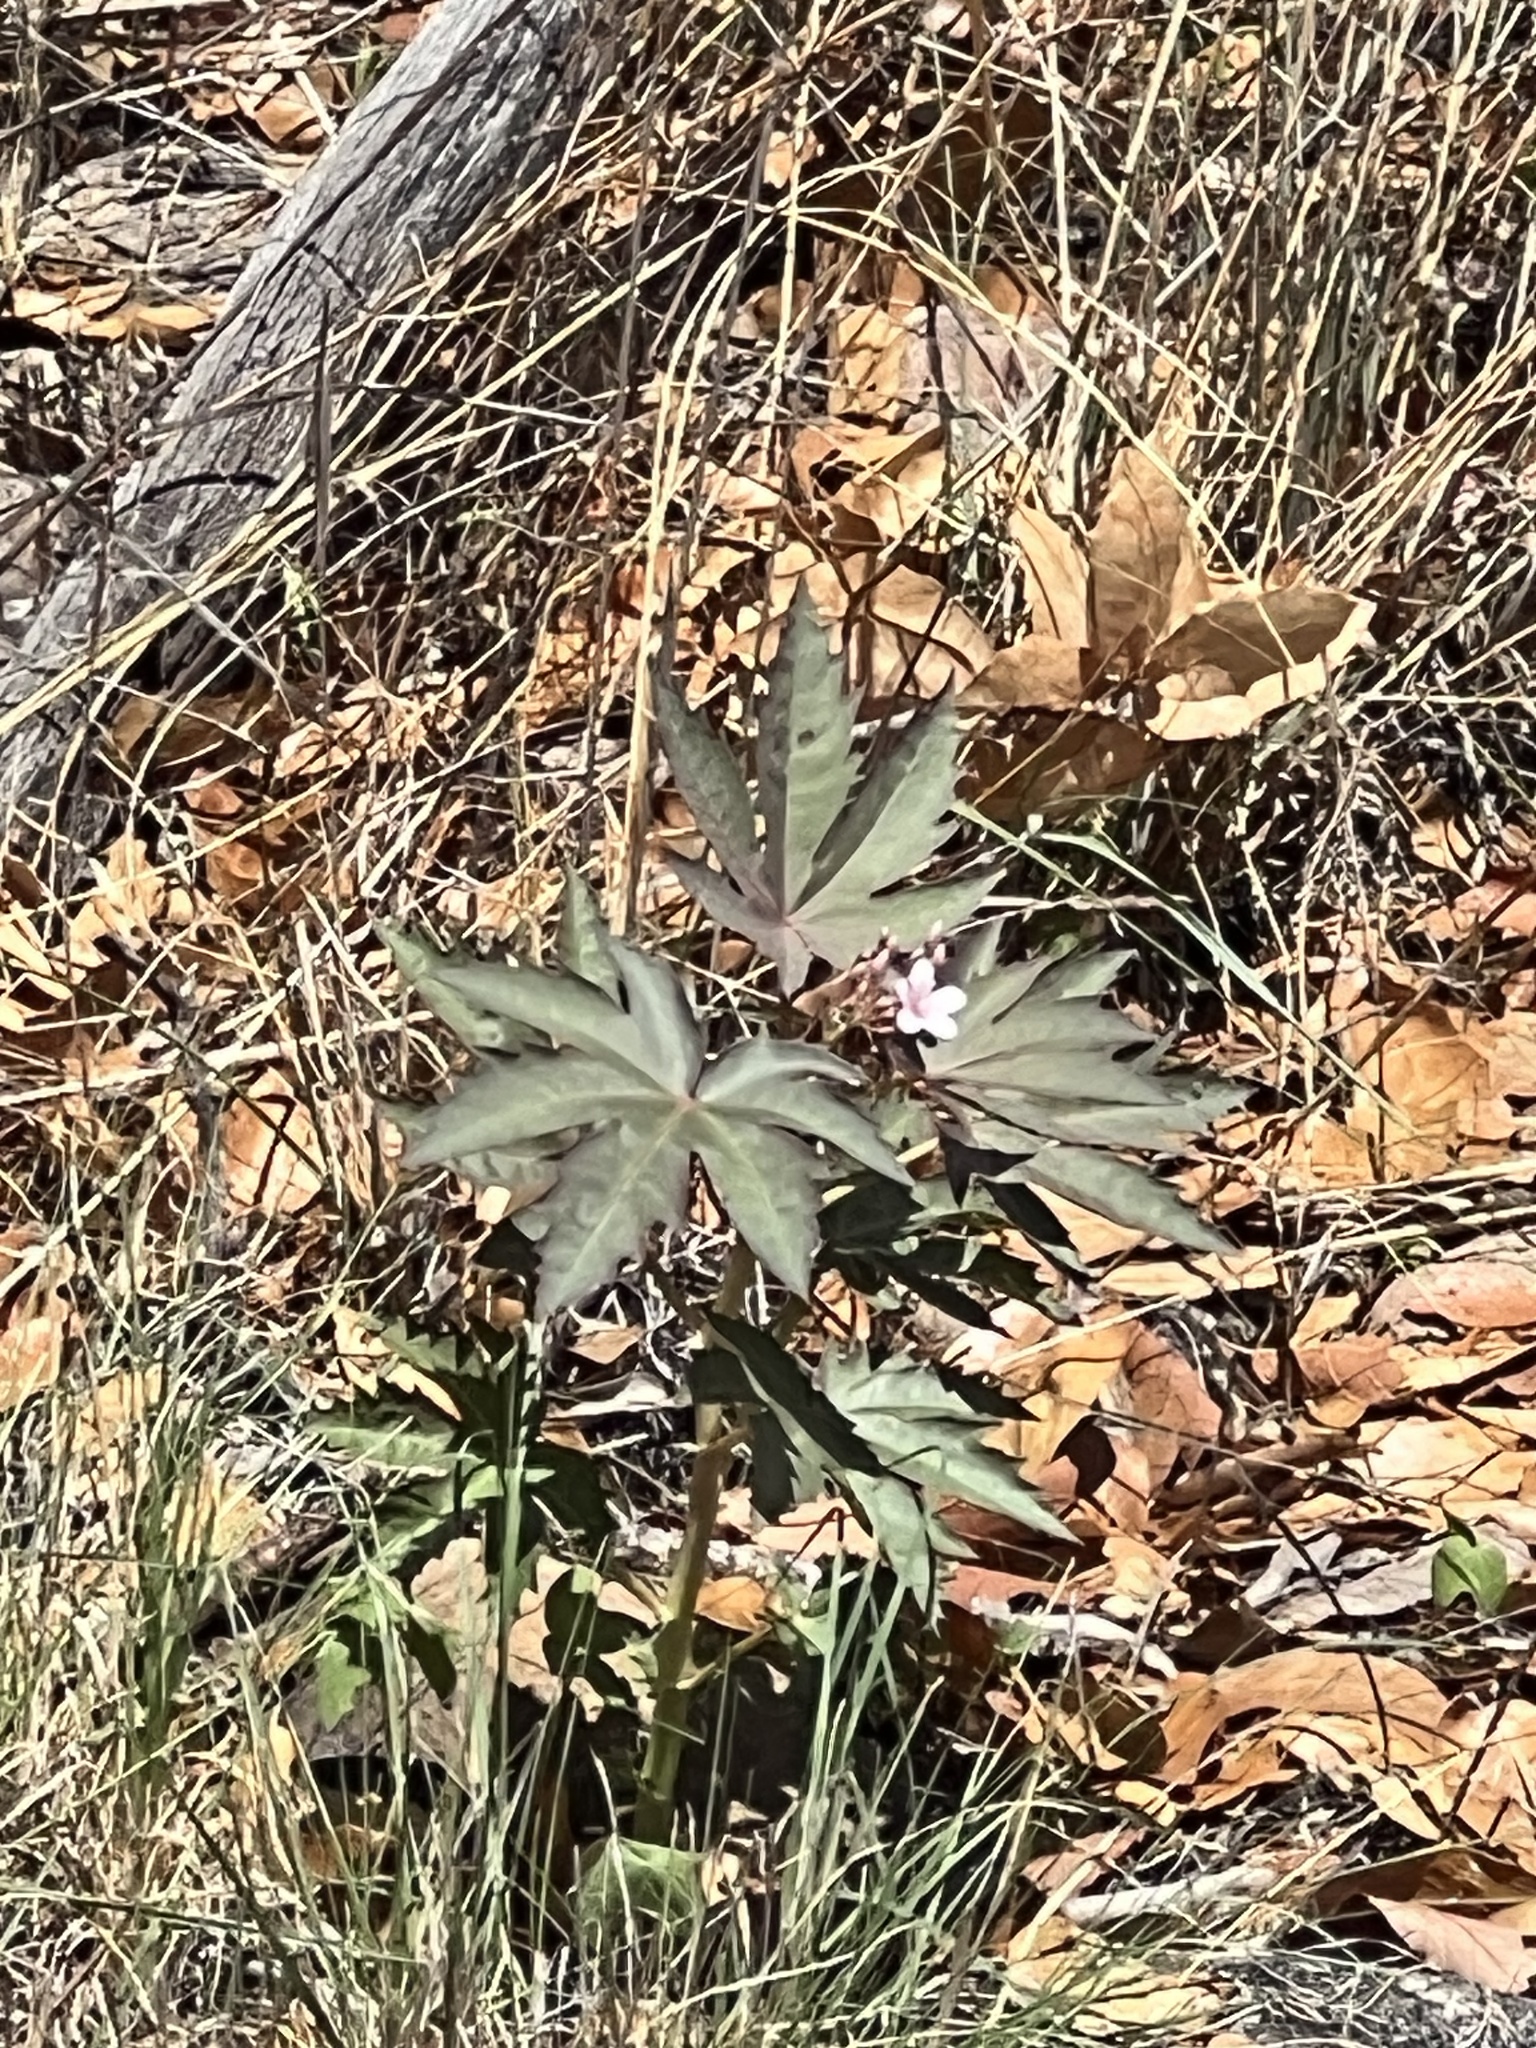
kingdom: Plantae
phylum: Tracheophyta
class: Magnoliopsida
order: Malpighiales
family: Euphorbiaceae
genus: Jatropha
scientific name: Jatropha macrorhiza
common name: Ragged nettlespurge
